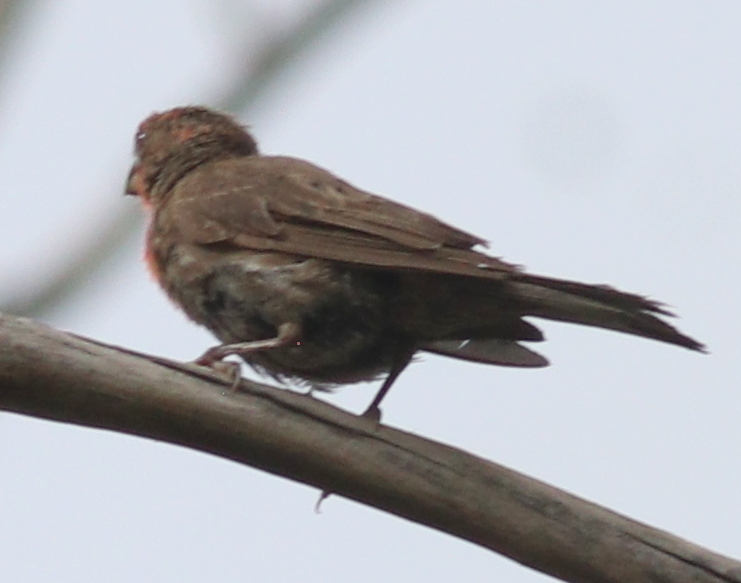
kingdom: Animalia
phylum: Chordata
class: Aves
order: Passeriformes
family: Fringillidae
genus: Haemorhous
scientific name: Haemorhous mexicanus
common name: House finch
